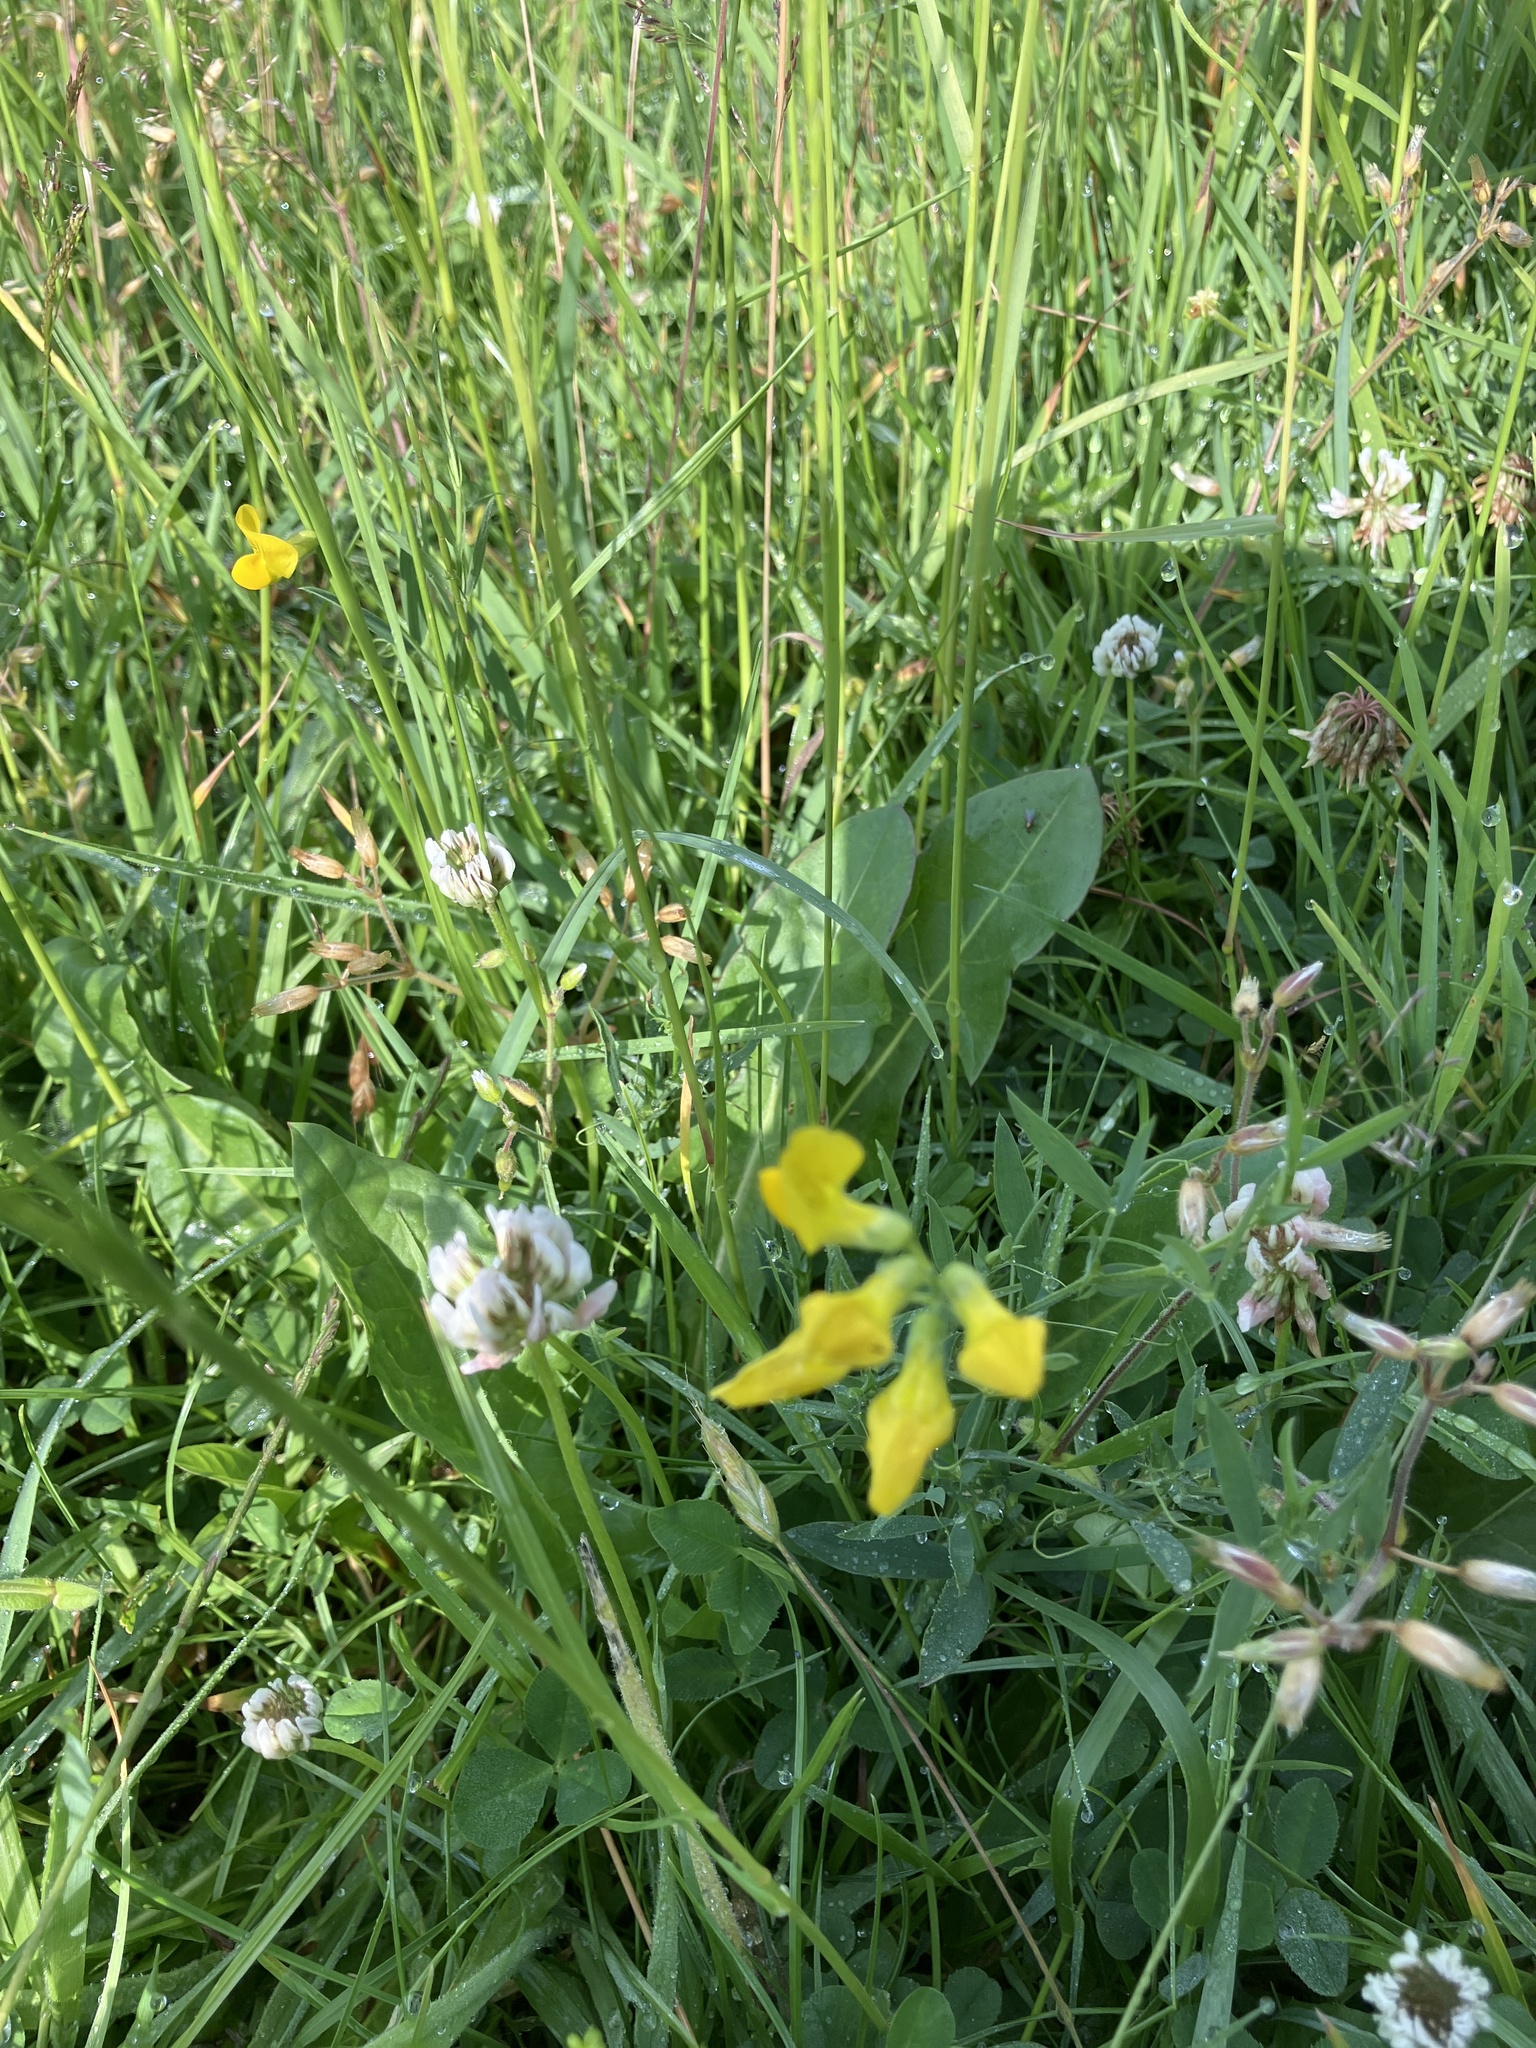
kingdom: Plantae
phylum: Tracheophyta
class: Magnoliopsida
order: Fabales
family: Fabaceae
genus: Lathyrus
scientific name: Lathyrus pratensis
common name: Meadow vetchling
